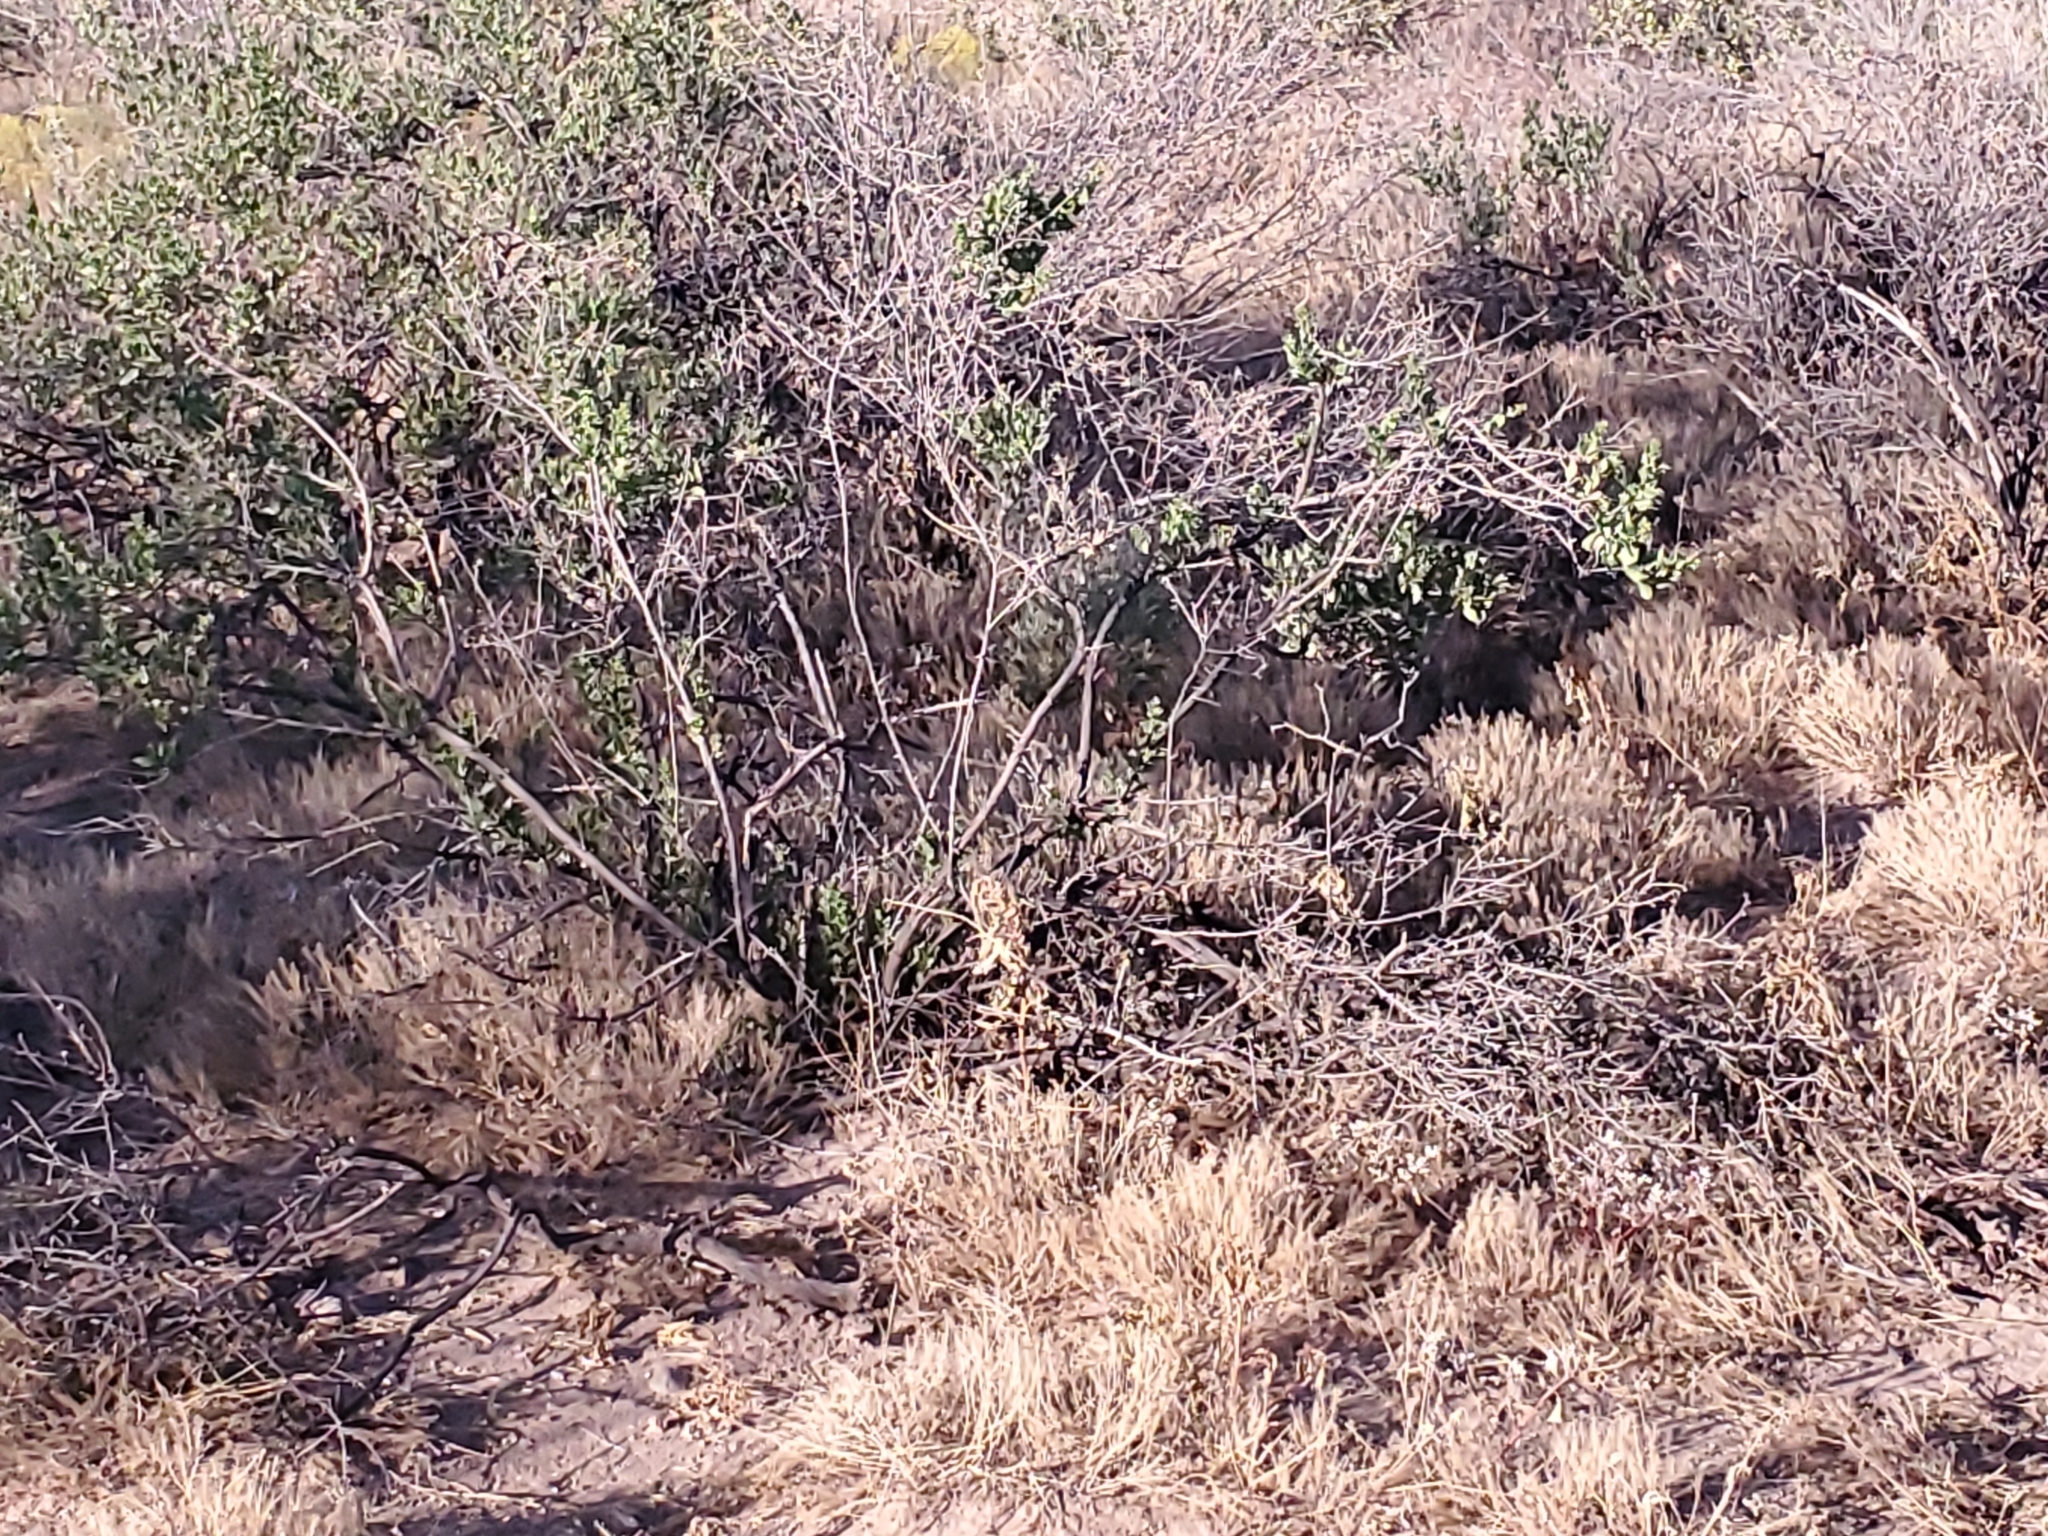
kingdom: Plantae
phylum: Tracheophyta
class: Magnoliopsida
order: Asterales
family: Asteraceae
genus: Flourensia
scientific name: Flourensia cernua
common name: Varnishbush
